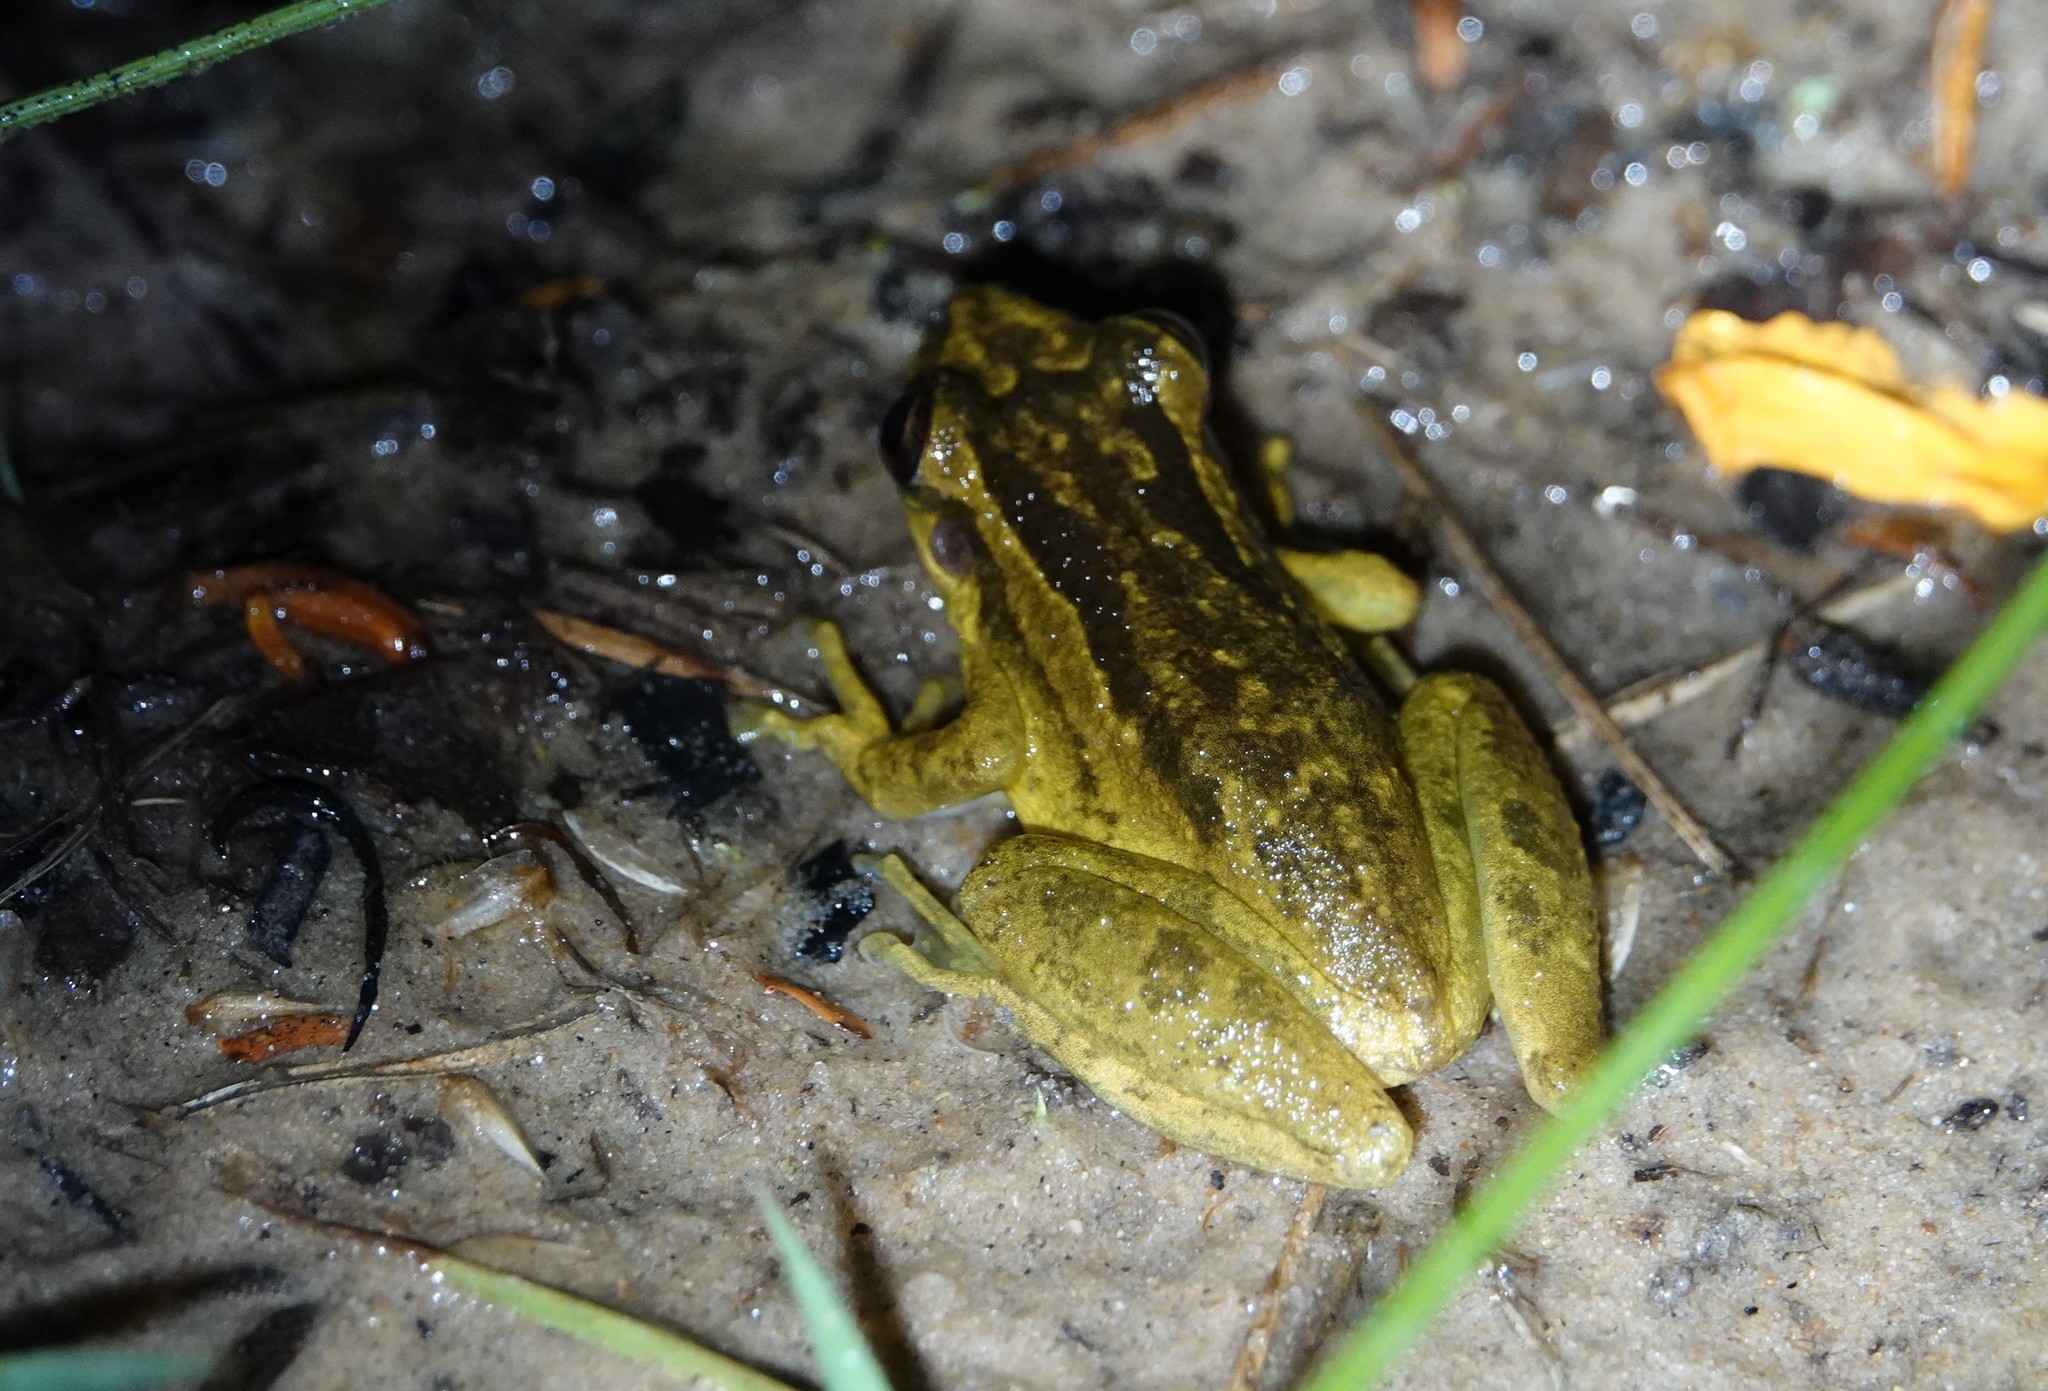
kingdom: Animalia
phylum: Chordata
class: Amphibia
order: Anura
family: Hylidae
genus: Scinax
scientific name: Scinax ruber
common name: Red snouted treefrog
